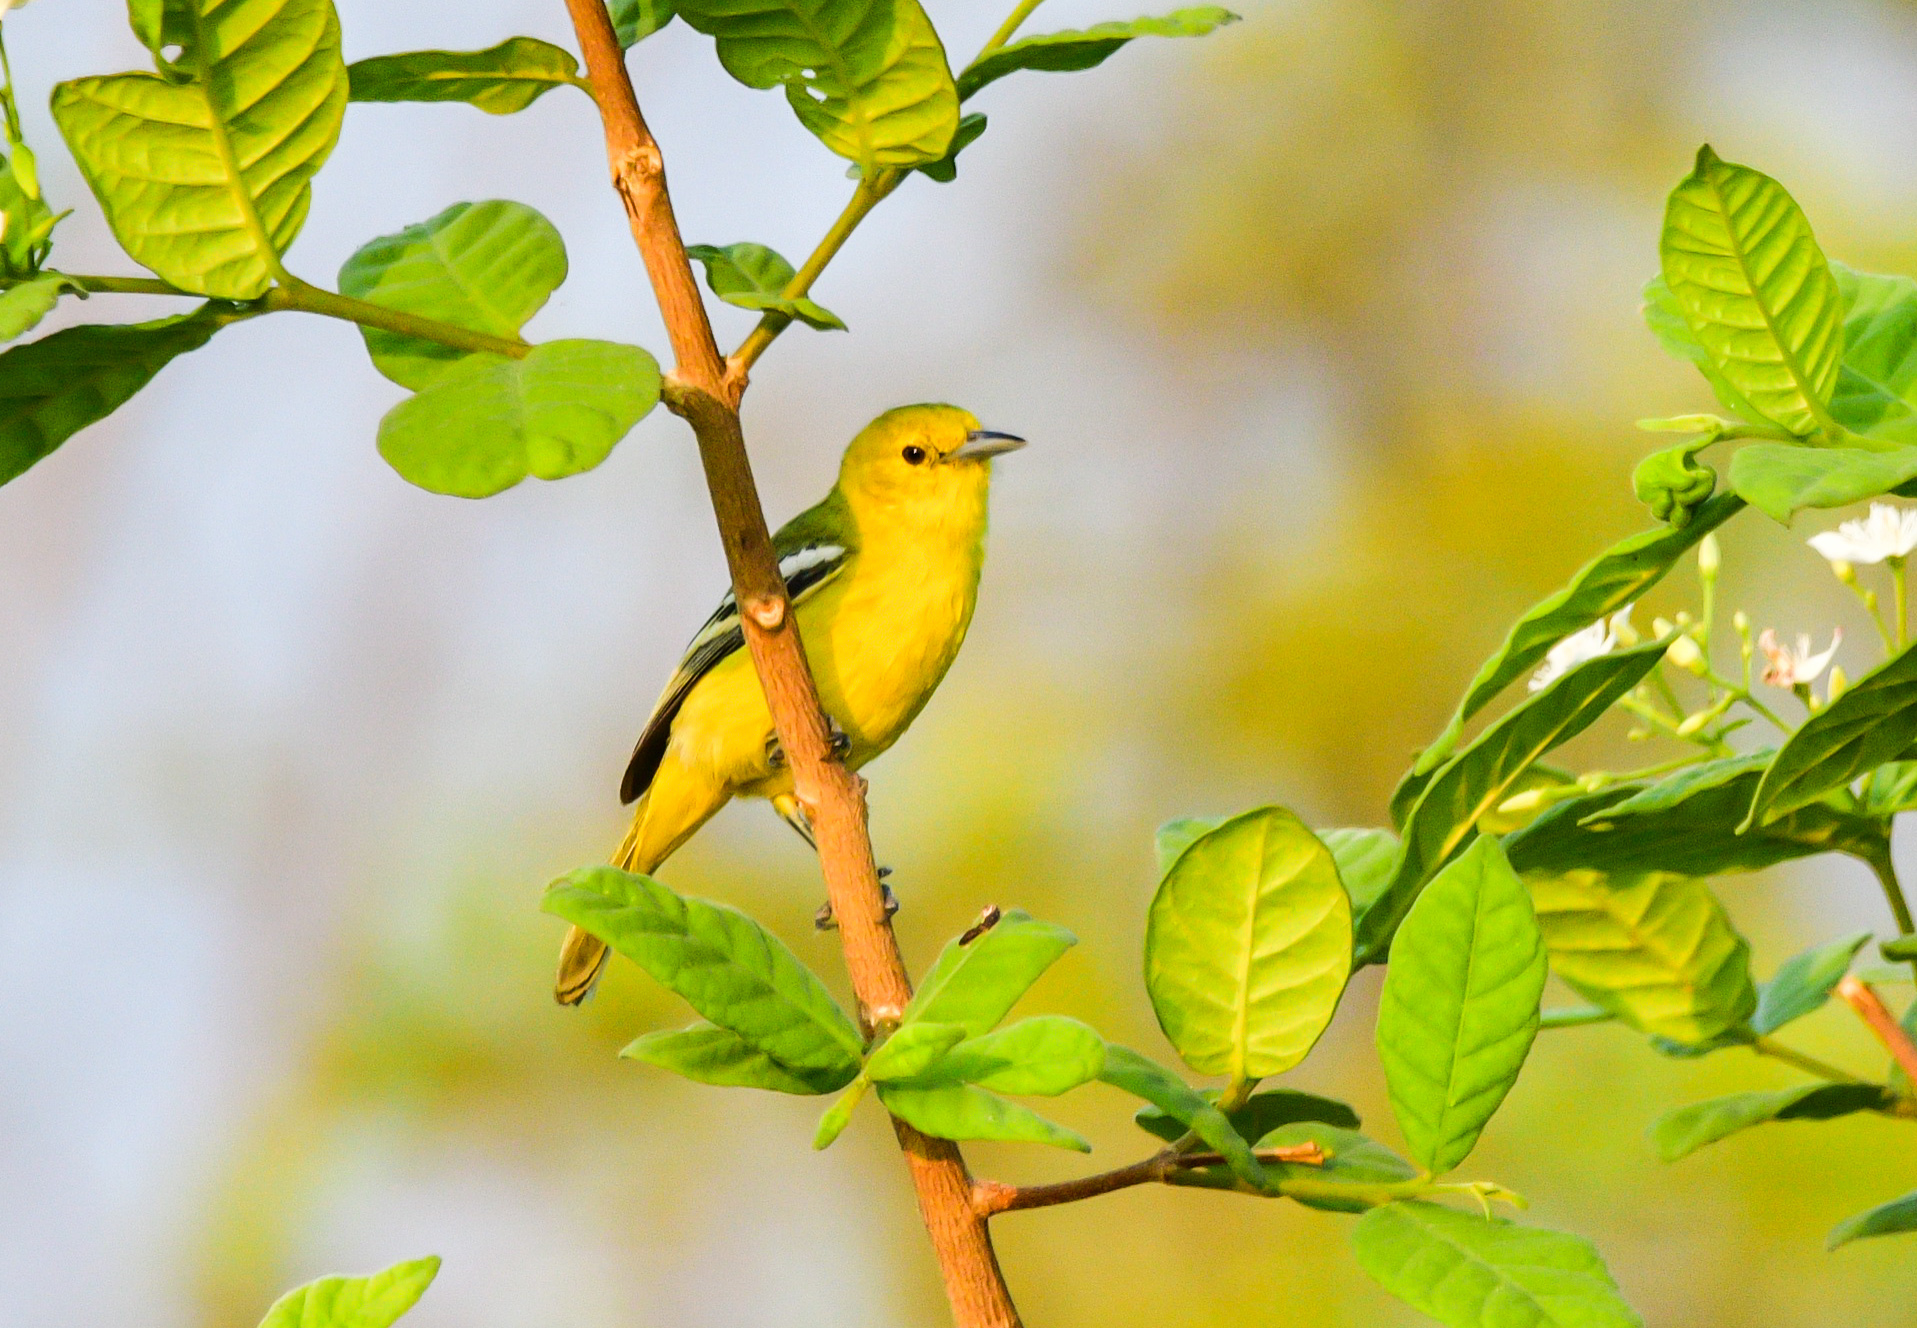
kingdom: Animalia
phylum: Chordata
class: Aves
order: Passeriformes
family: Aegithinidae
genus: Aegithina
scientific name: Aegithina tiphia
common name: Common iora
